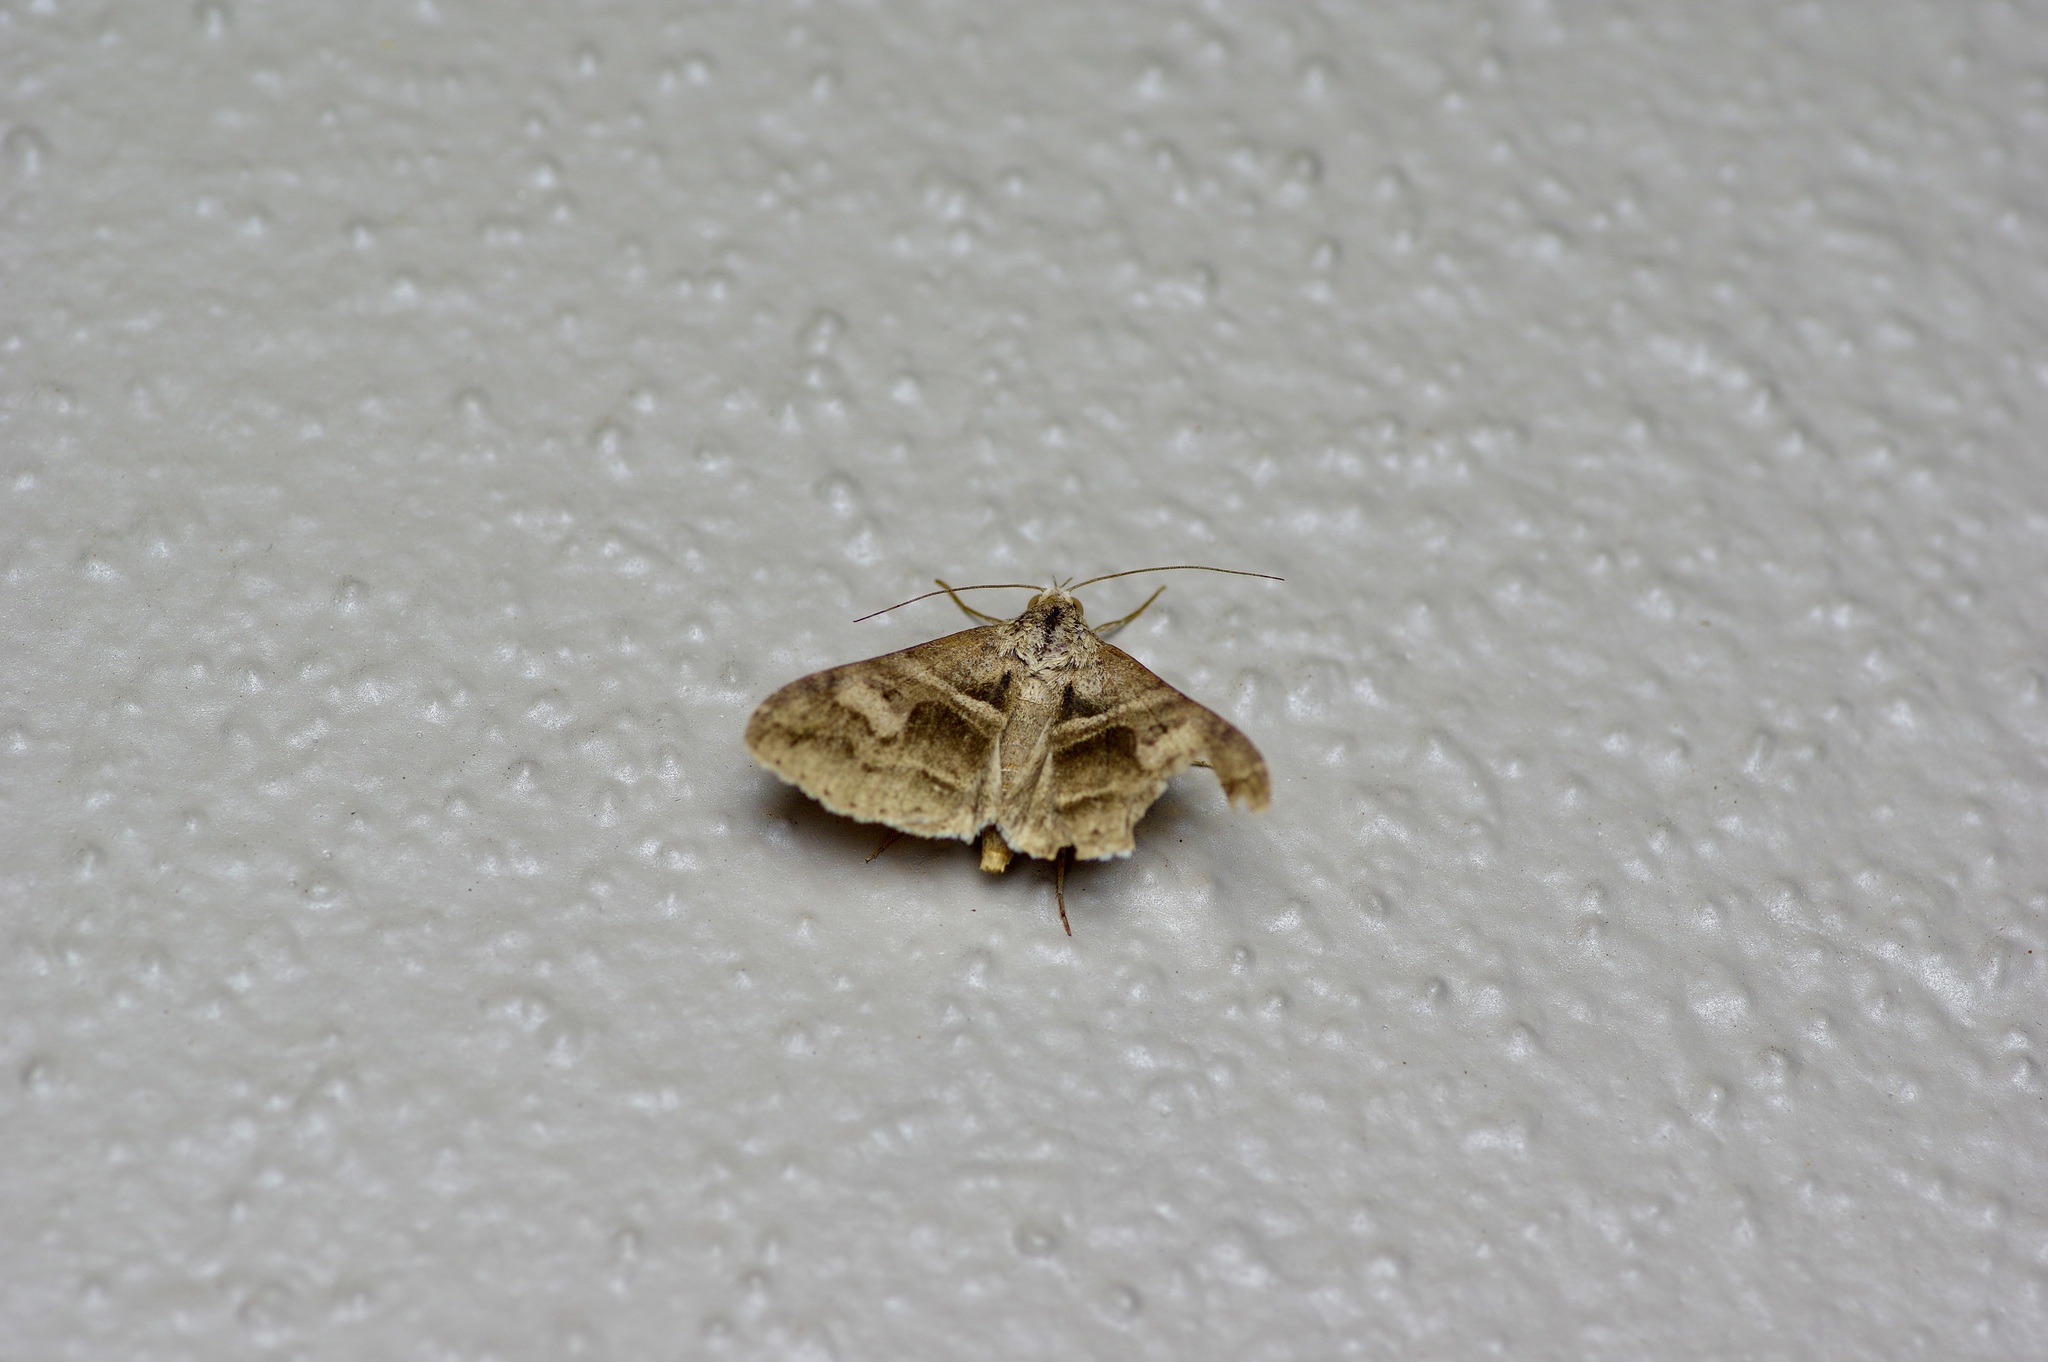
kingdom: Animalia
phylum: Arthropoda
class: Insecta
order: Lepidoptera
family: Erebidae
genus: Melipotis
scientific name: Melipotis cellaris
